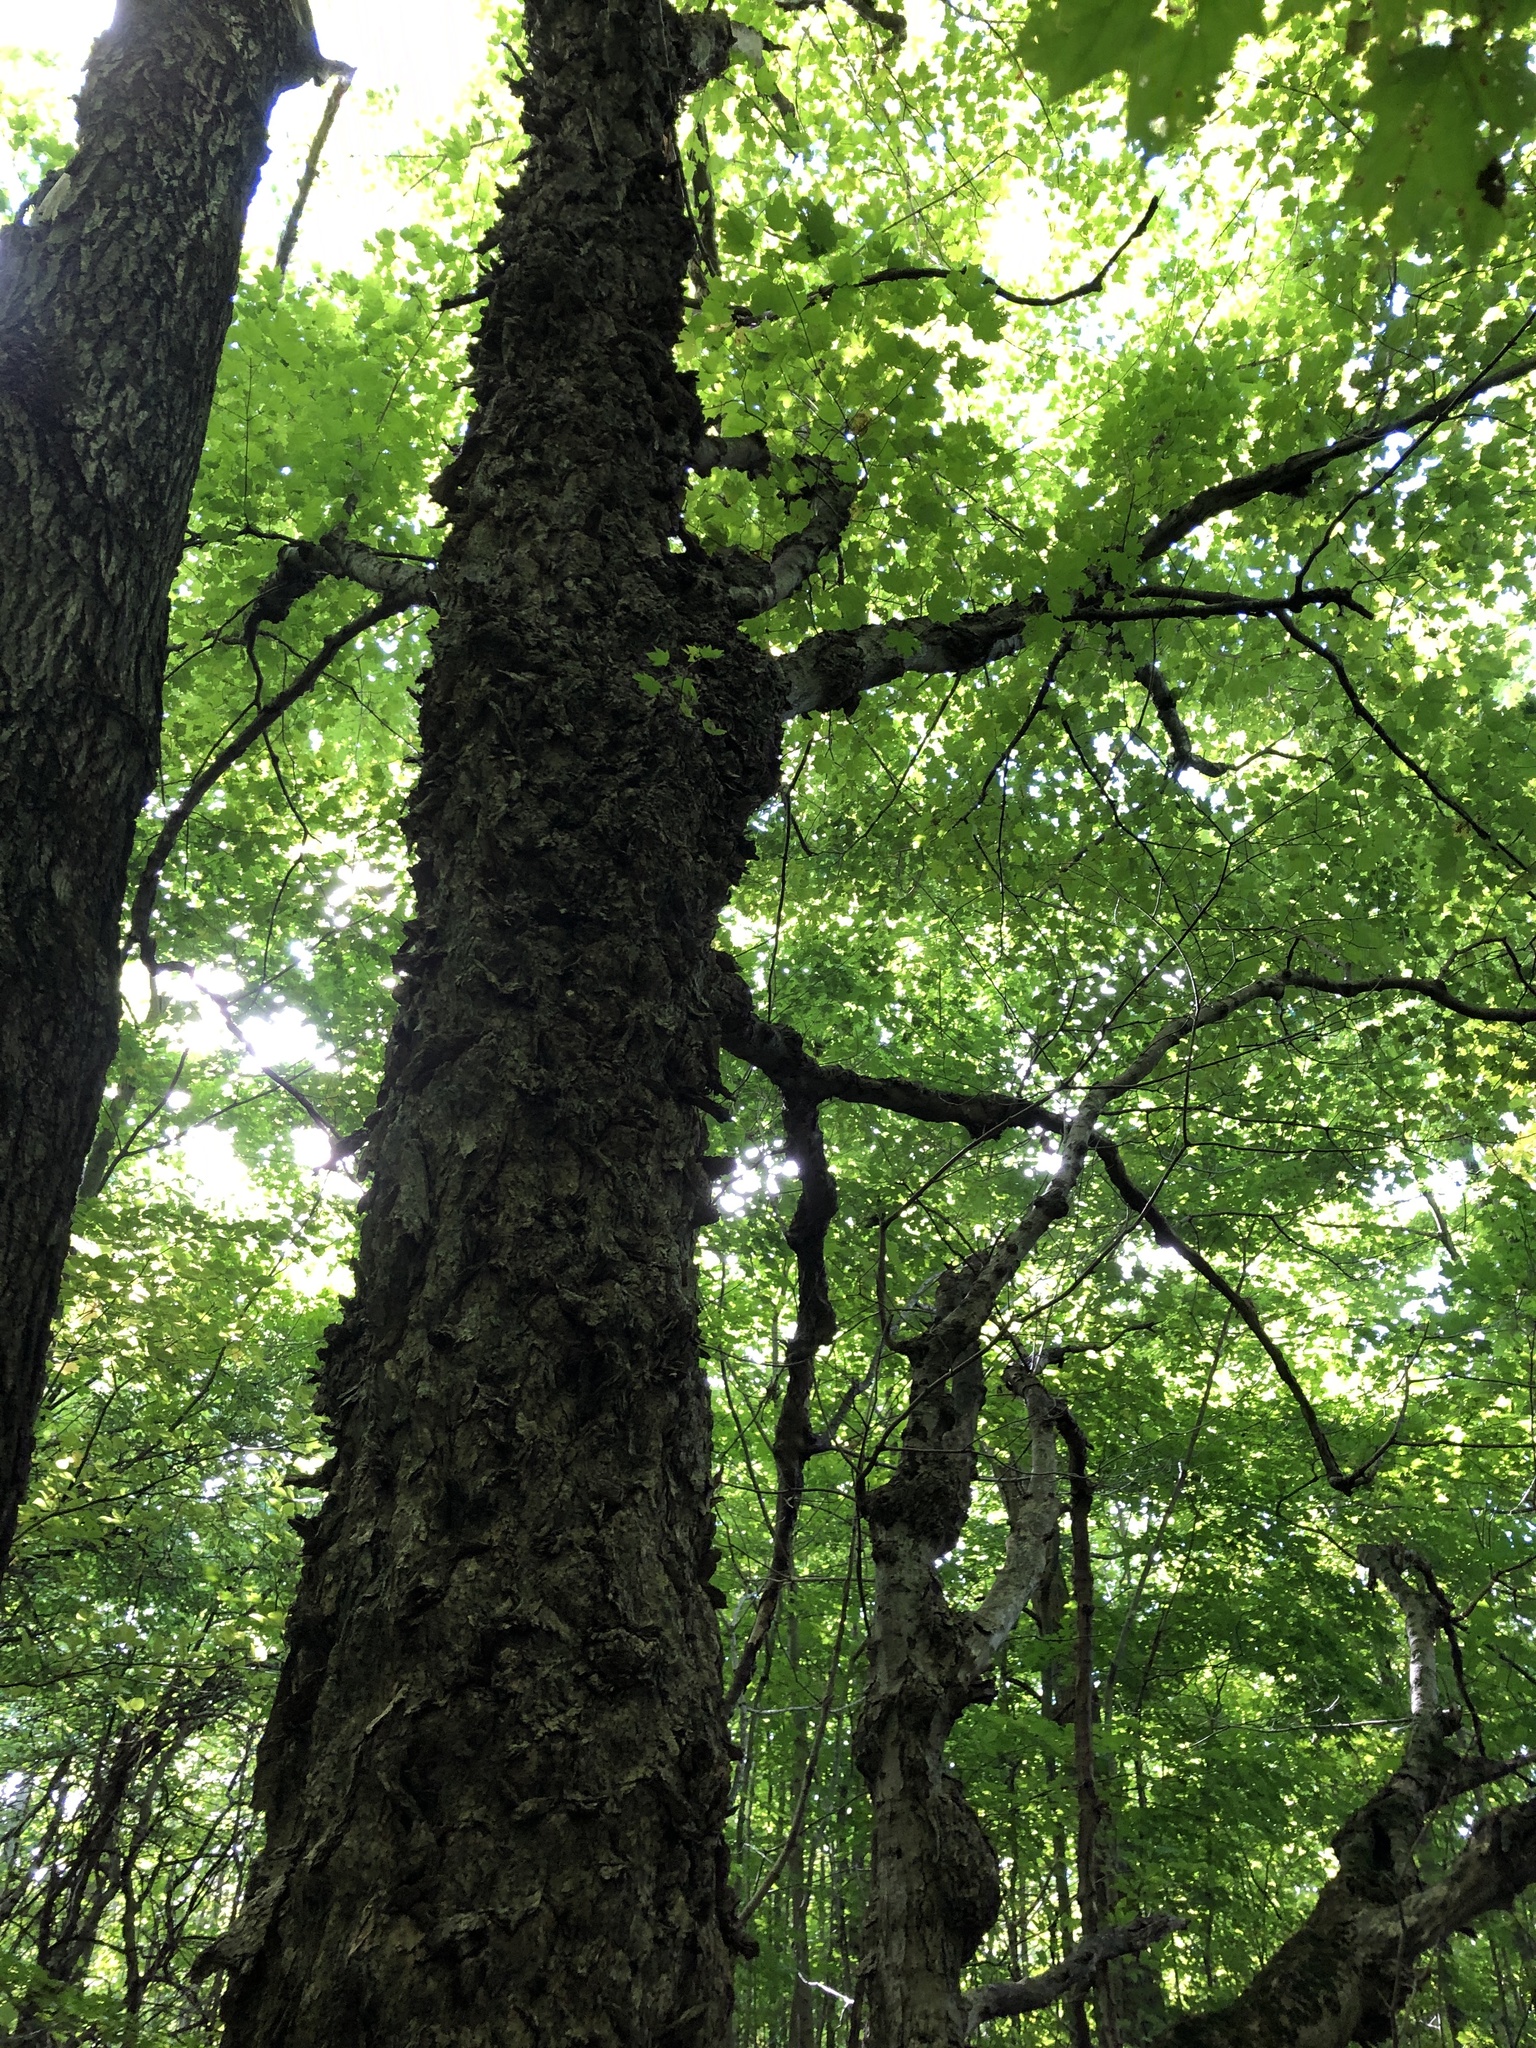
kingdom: Plantae
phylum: Tracheophyta
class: Magnoliopsida
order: Sapindales
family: Sapindaceae
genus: Acer
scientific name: Acer saccharum
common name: Sugar maple
